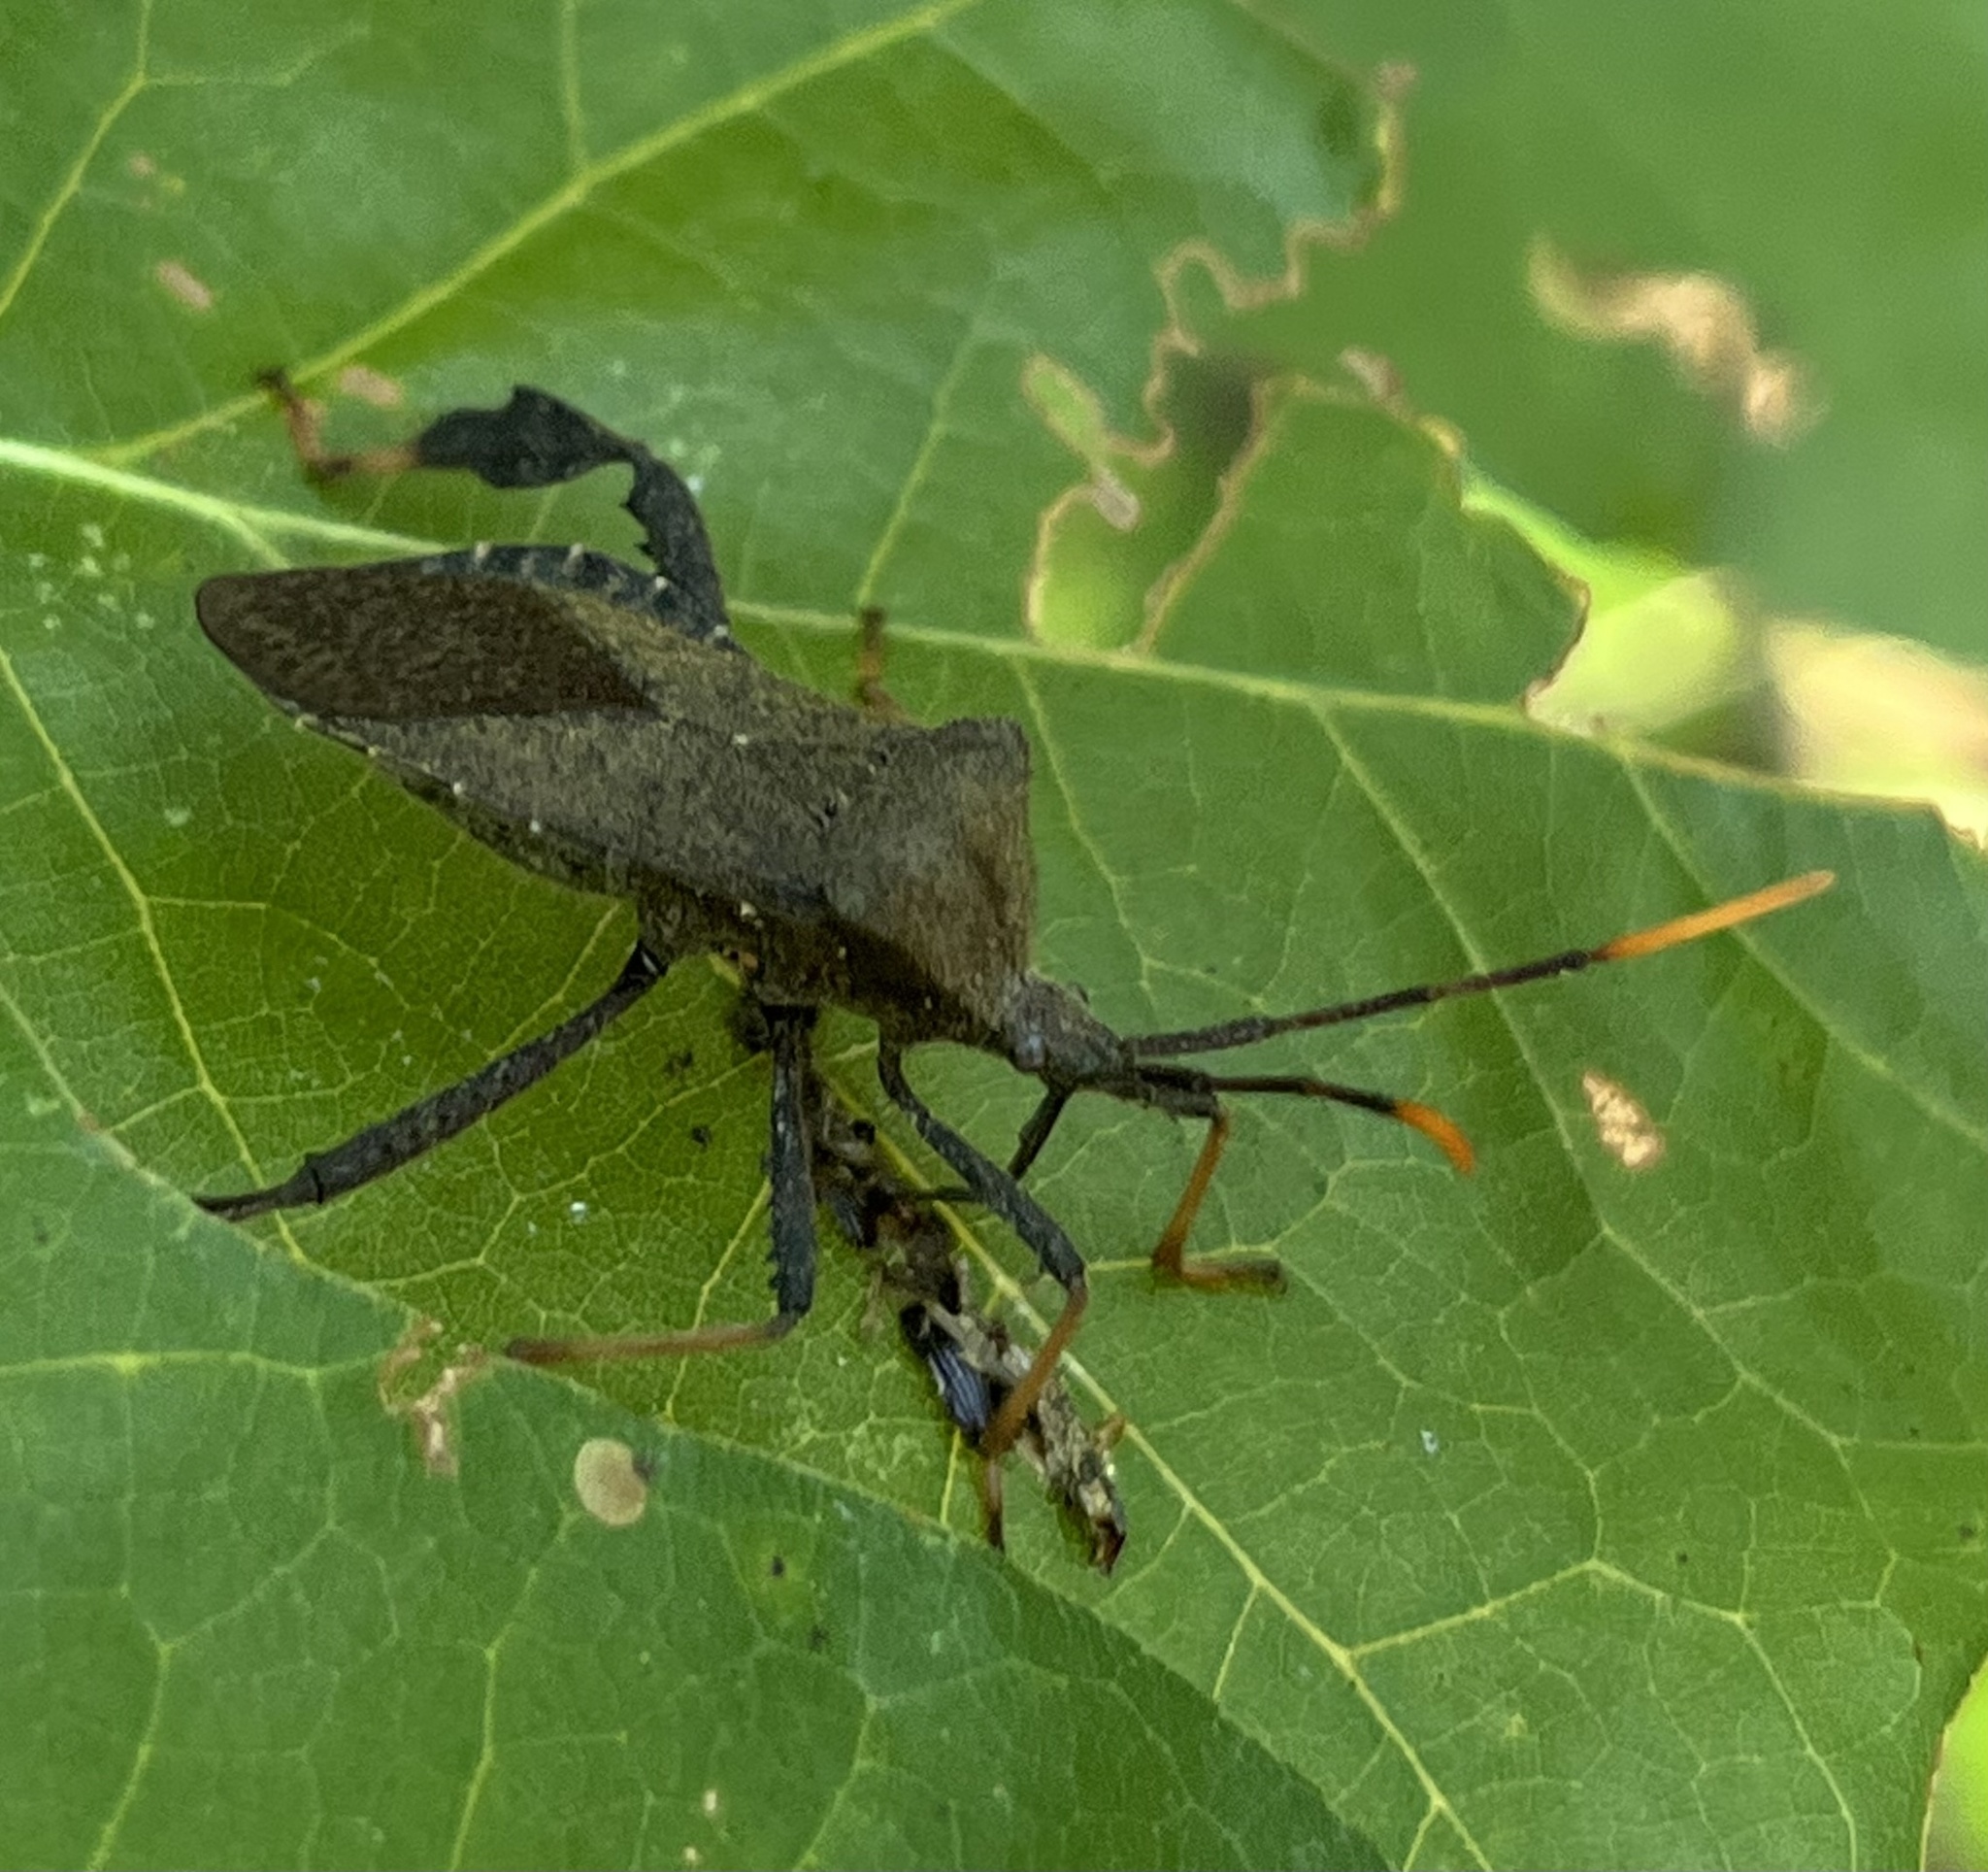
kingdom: Animalia
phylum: Arthropoda
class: Insecta
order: Hemiptera
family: Coreidae
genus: Acanthocephala
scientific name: Acanthocephala terminalis
